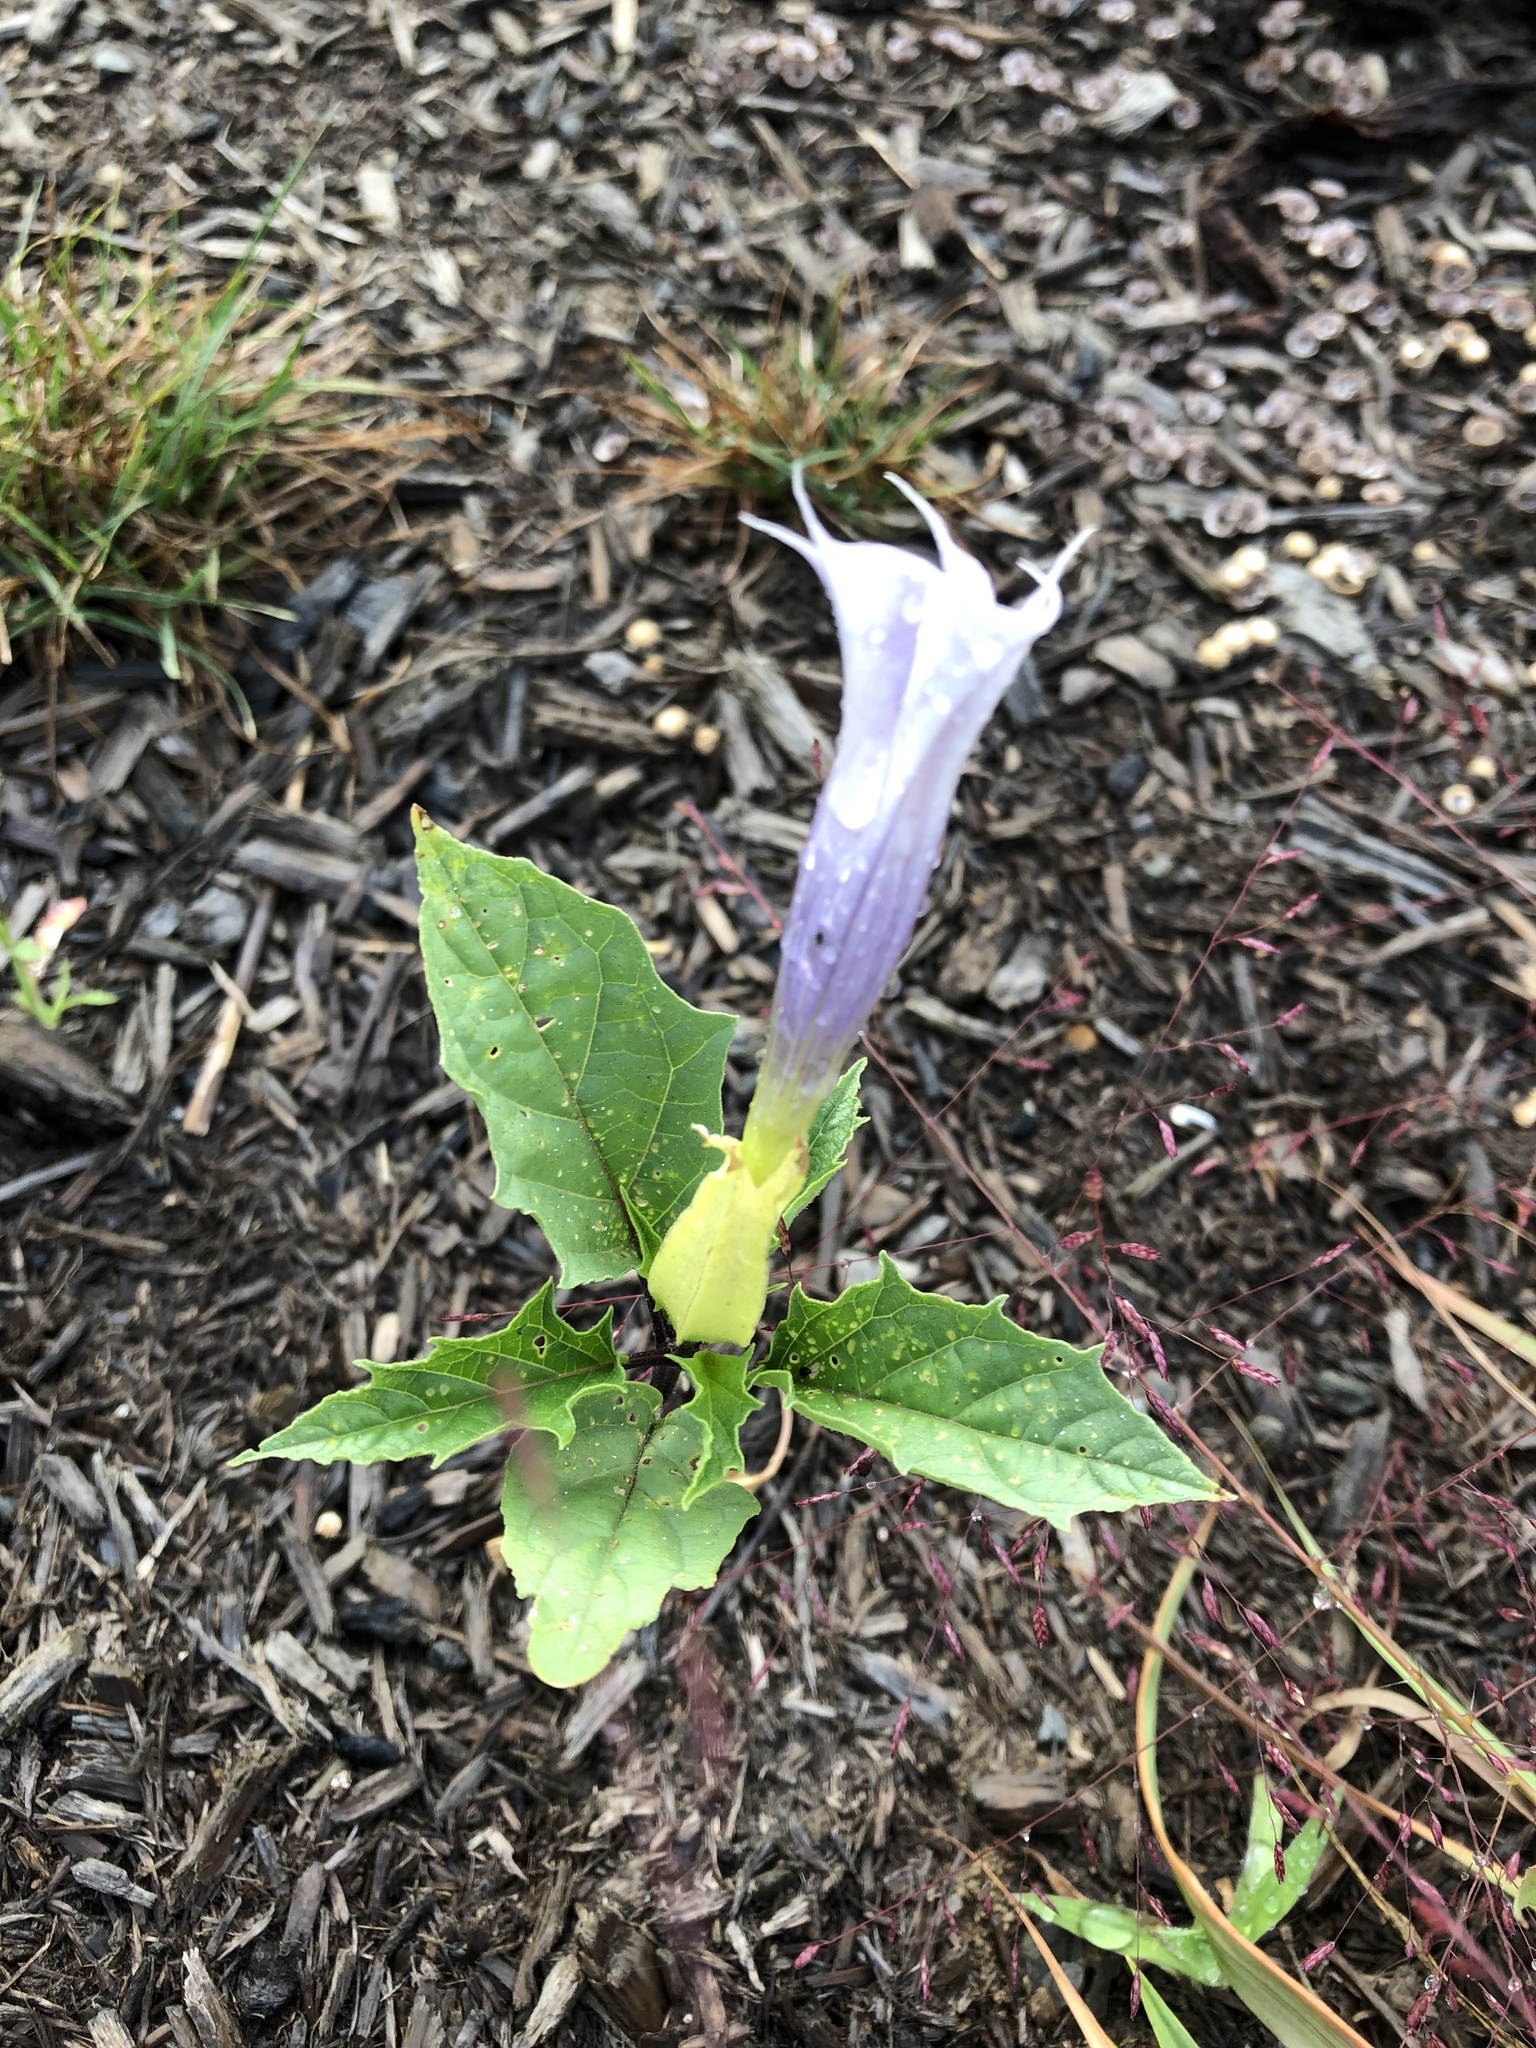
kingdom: Plantae
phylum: Tracheophyta
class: Magnoliopsida
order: Solanales
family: Solanaceae
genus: Datura
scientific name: Datura stramonium
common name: Thorn-apple
